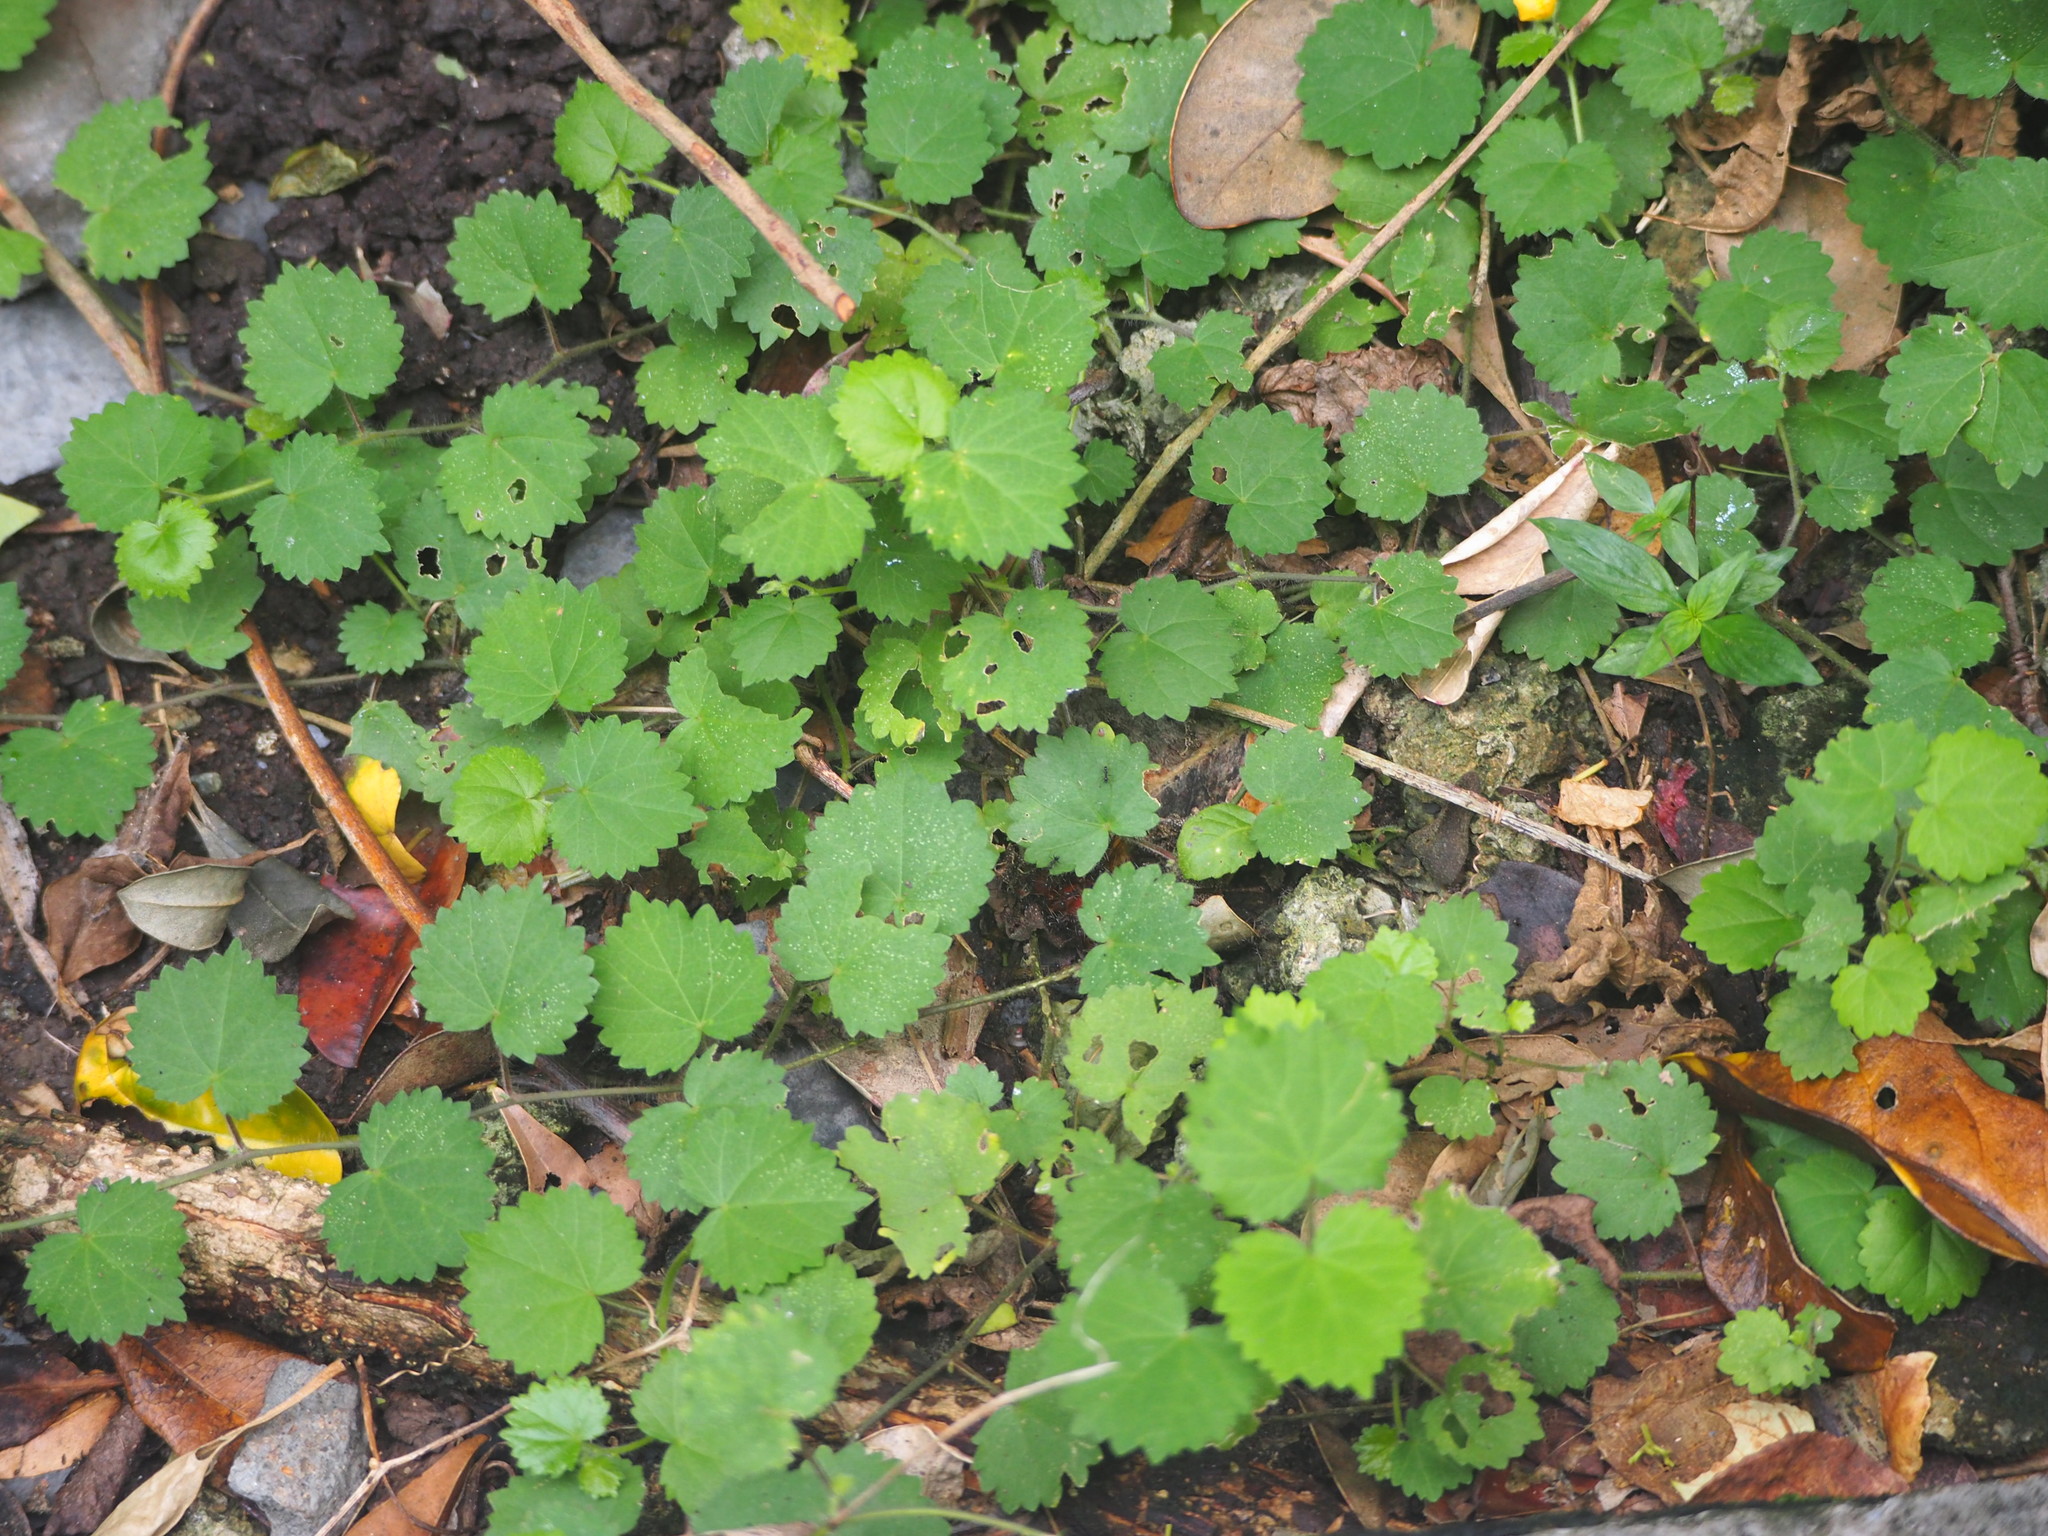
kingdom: Plantae
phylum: Tracheophyta
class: Magnoliopsida
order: Malvales
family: Malvaceae
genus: Sida
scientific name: Sida javensis
